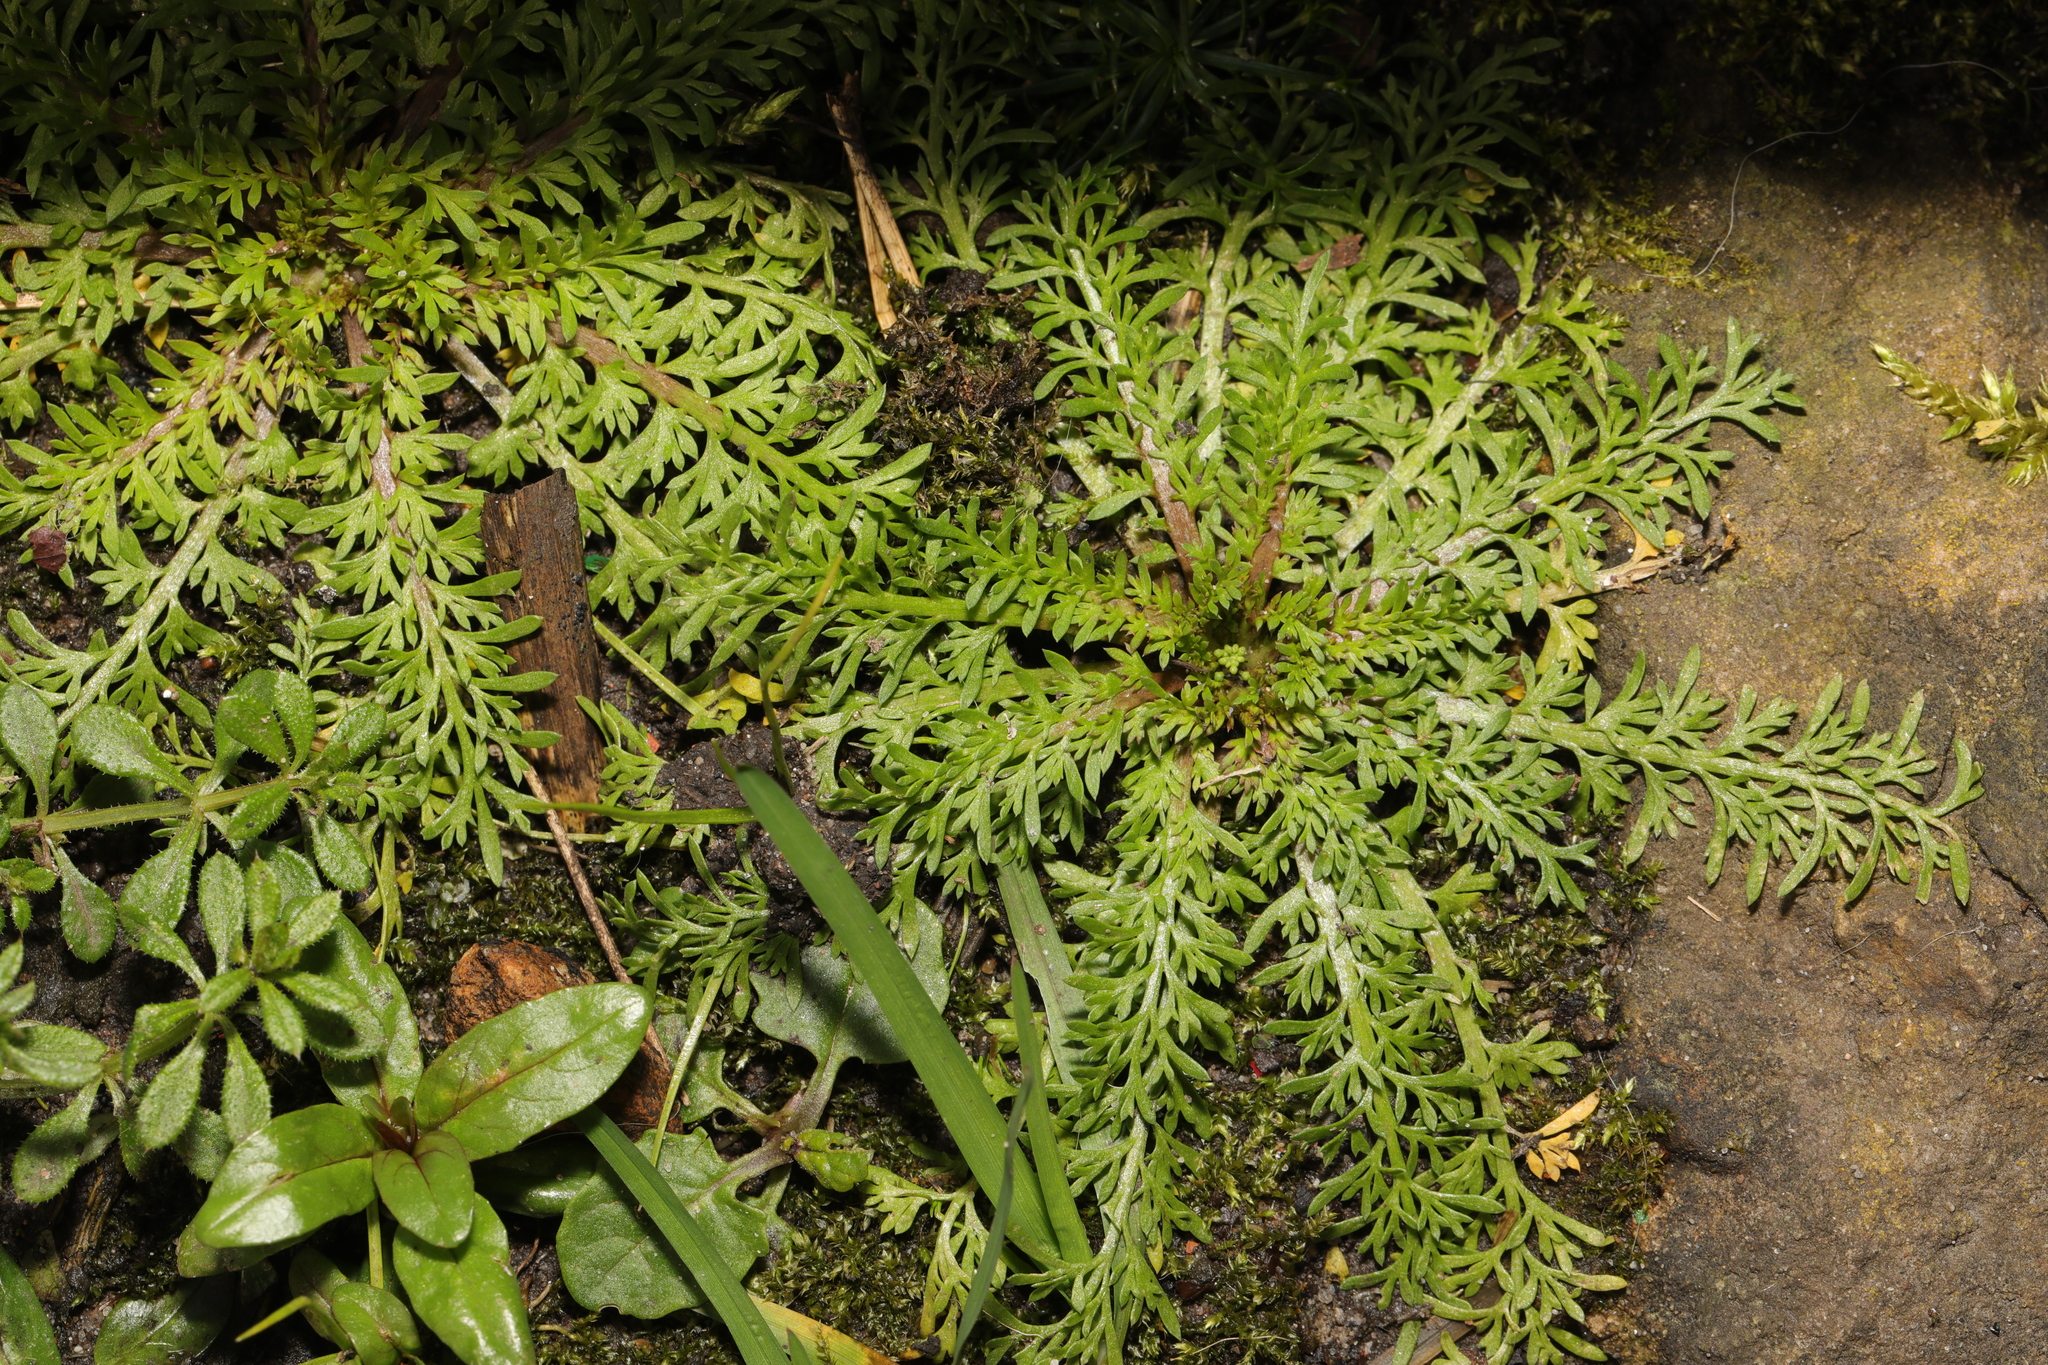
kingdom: Plantae
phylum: Tracheophyta
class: Magnoliopsida
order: Brassicales
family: Brassicaceae
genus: Lepidium
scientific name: Lepidium didymum
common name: Lesser swinecress
